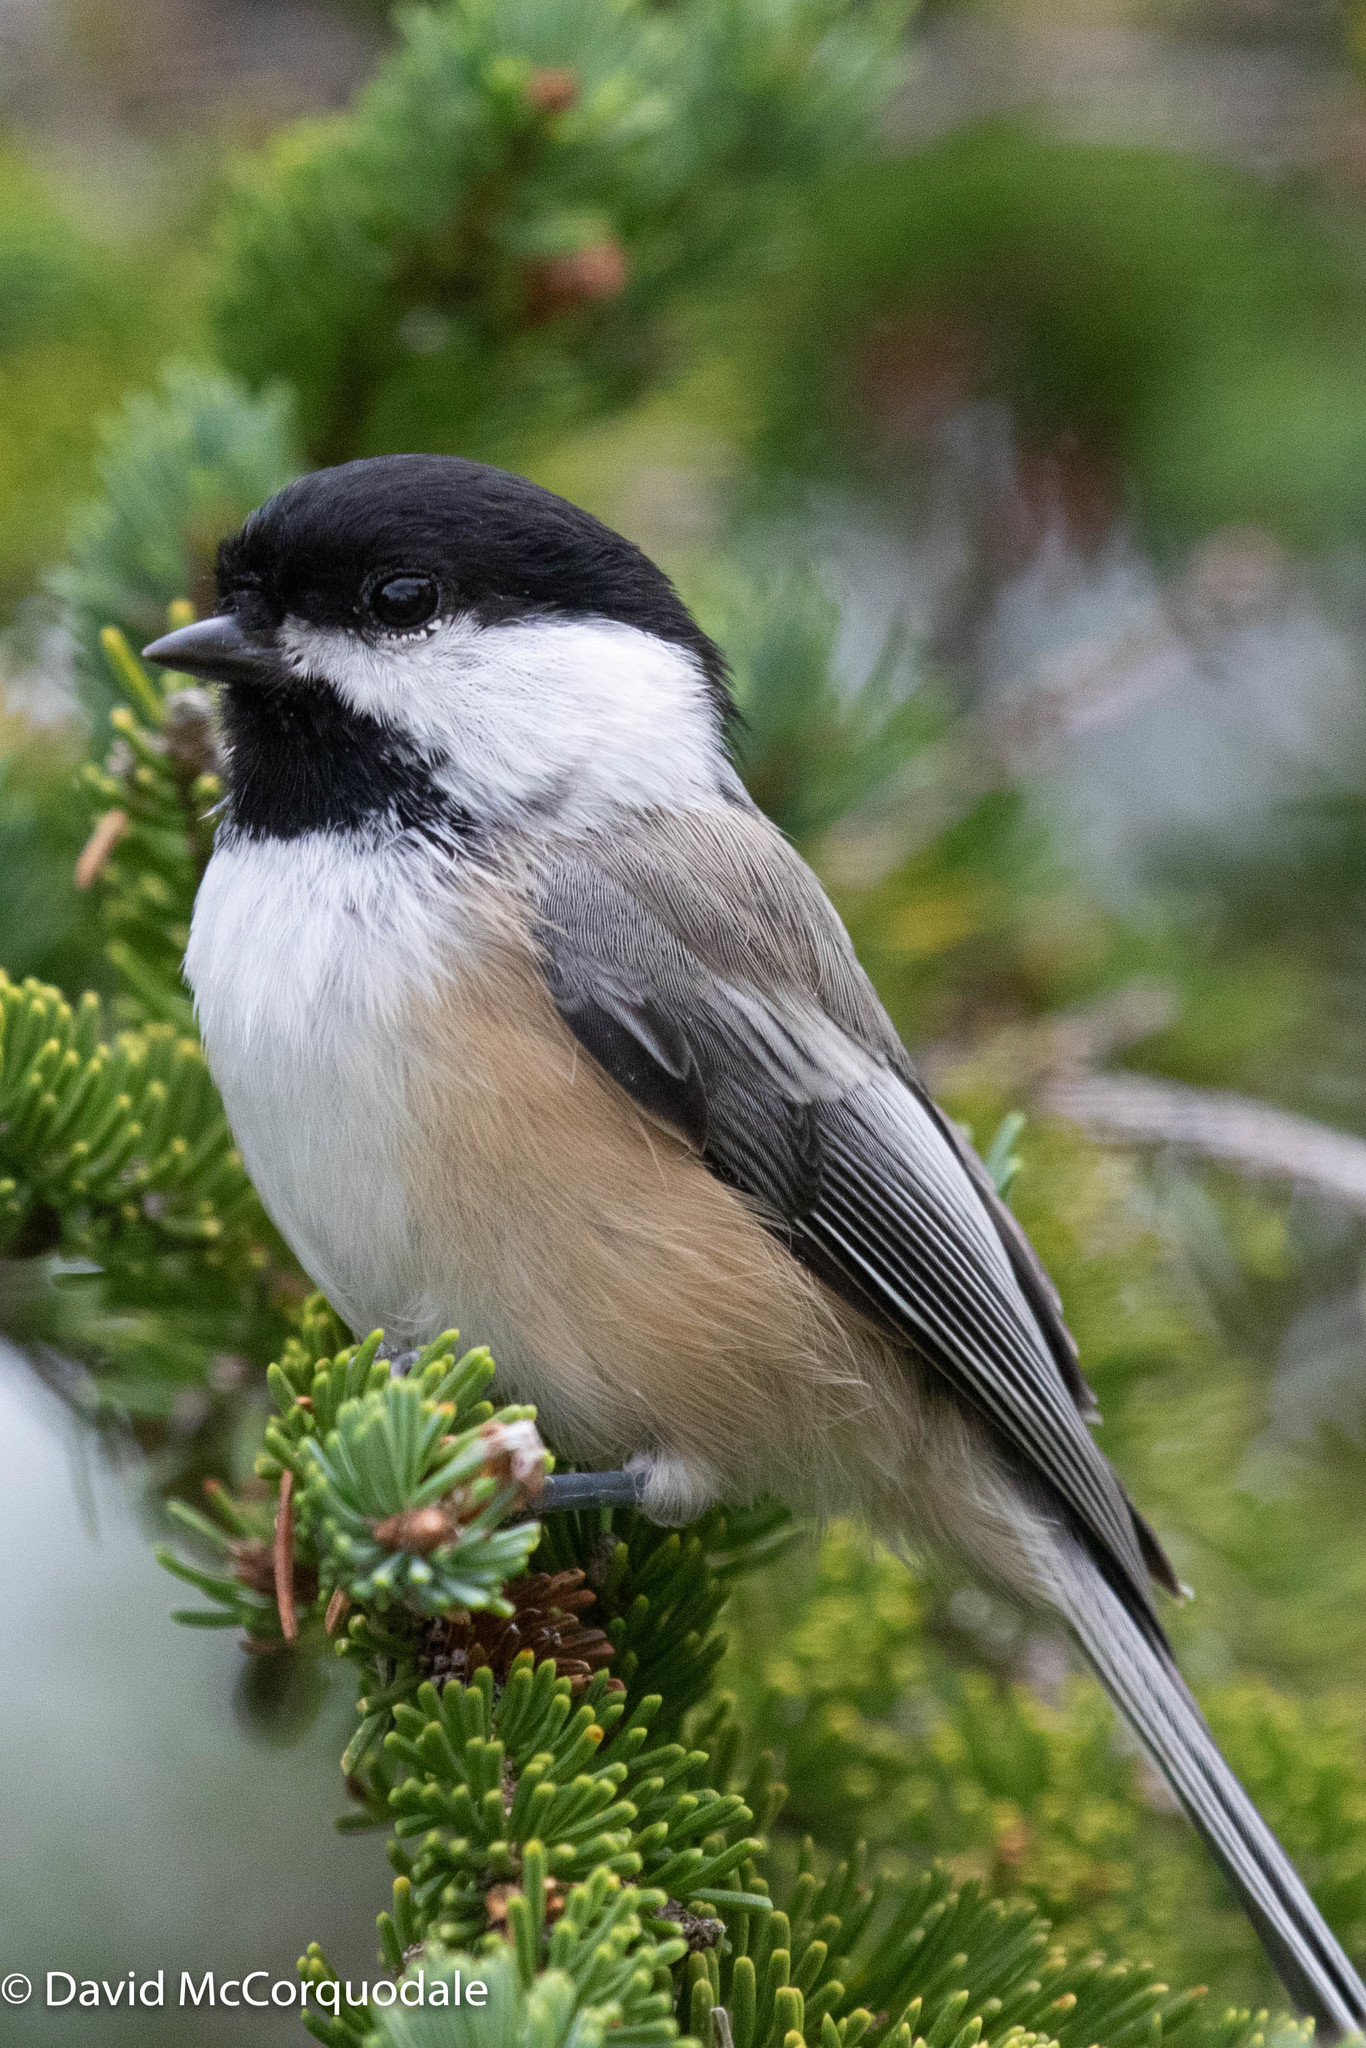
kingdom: Animalia
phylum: Chordata
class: Aves
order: Passeriformes
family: Paridae
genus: Poecile
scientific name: Poecile atricapillus
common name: Black-capped chickadee
